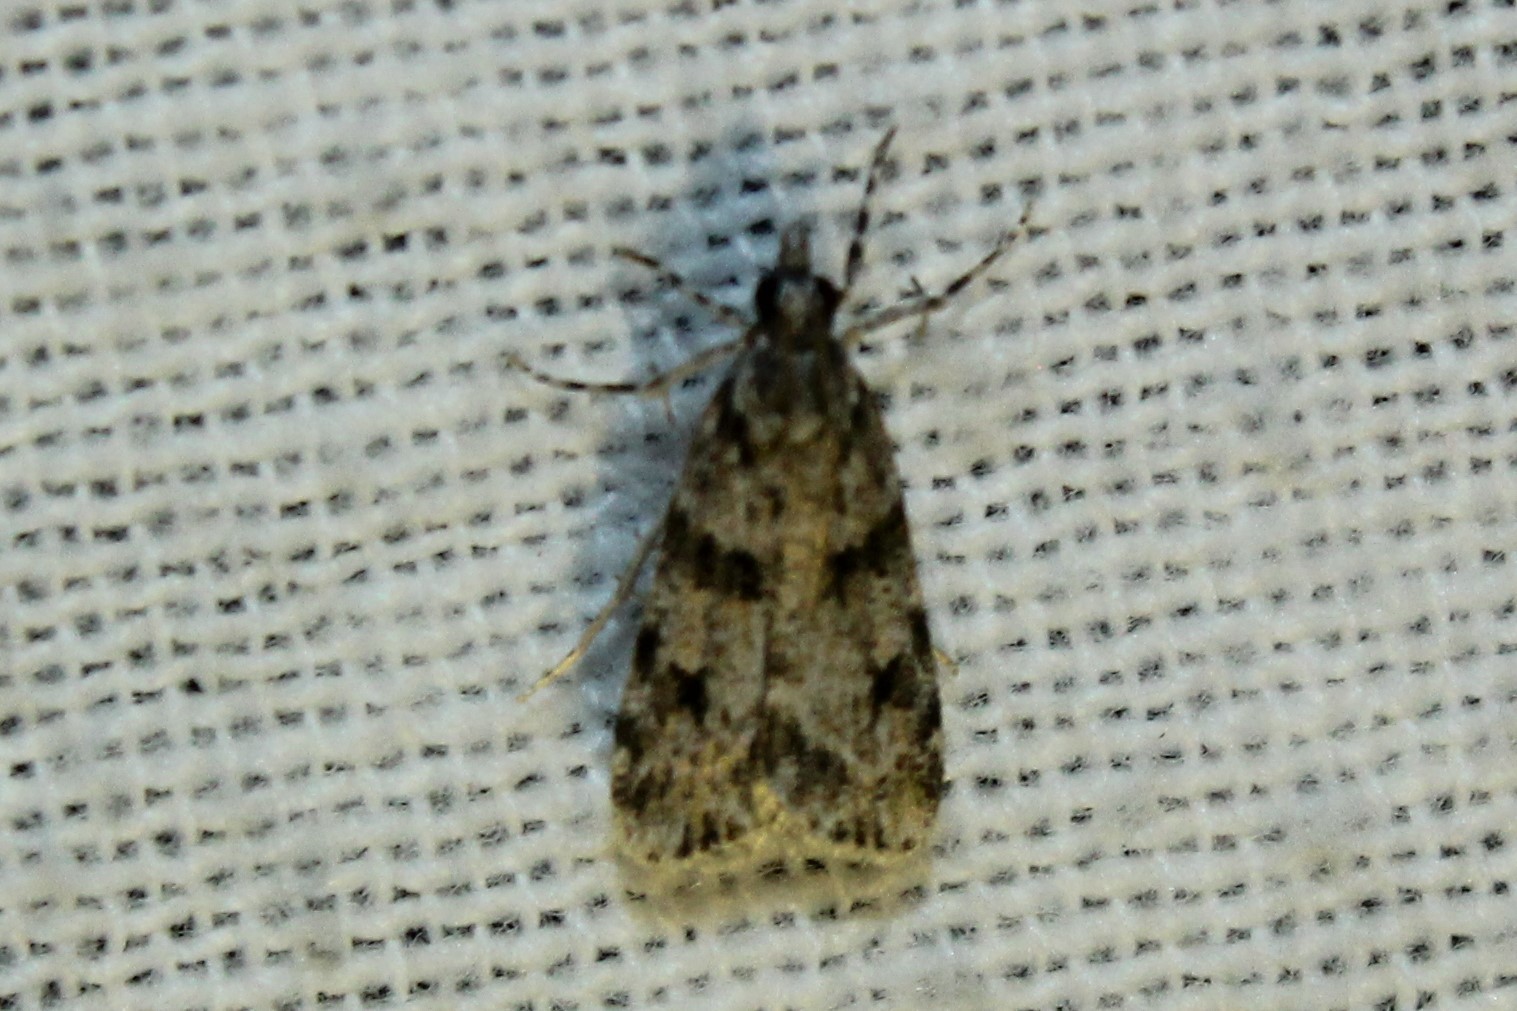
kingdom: Animalia
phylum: Arthropoda
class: Insecta
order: Lepidoptera
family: Crambidae
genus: Scoparia
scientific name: Scoparia biplagialis
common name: Double-striped scoparia moth
